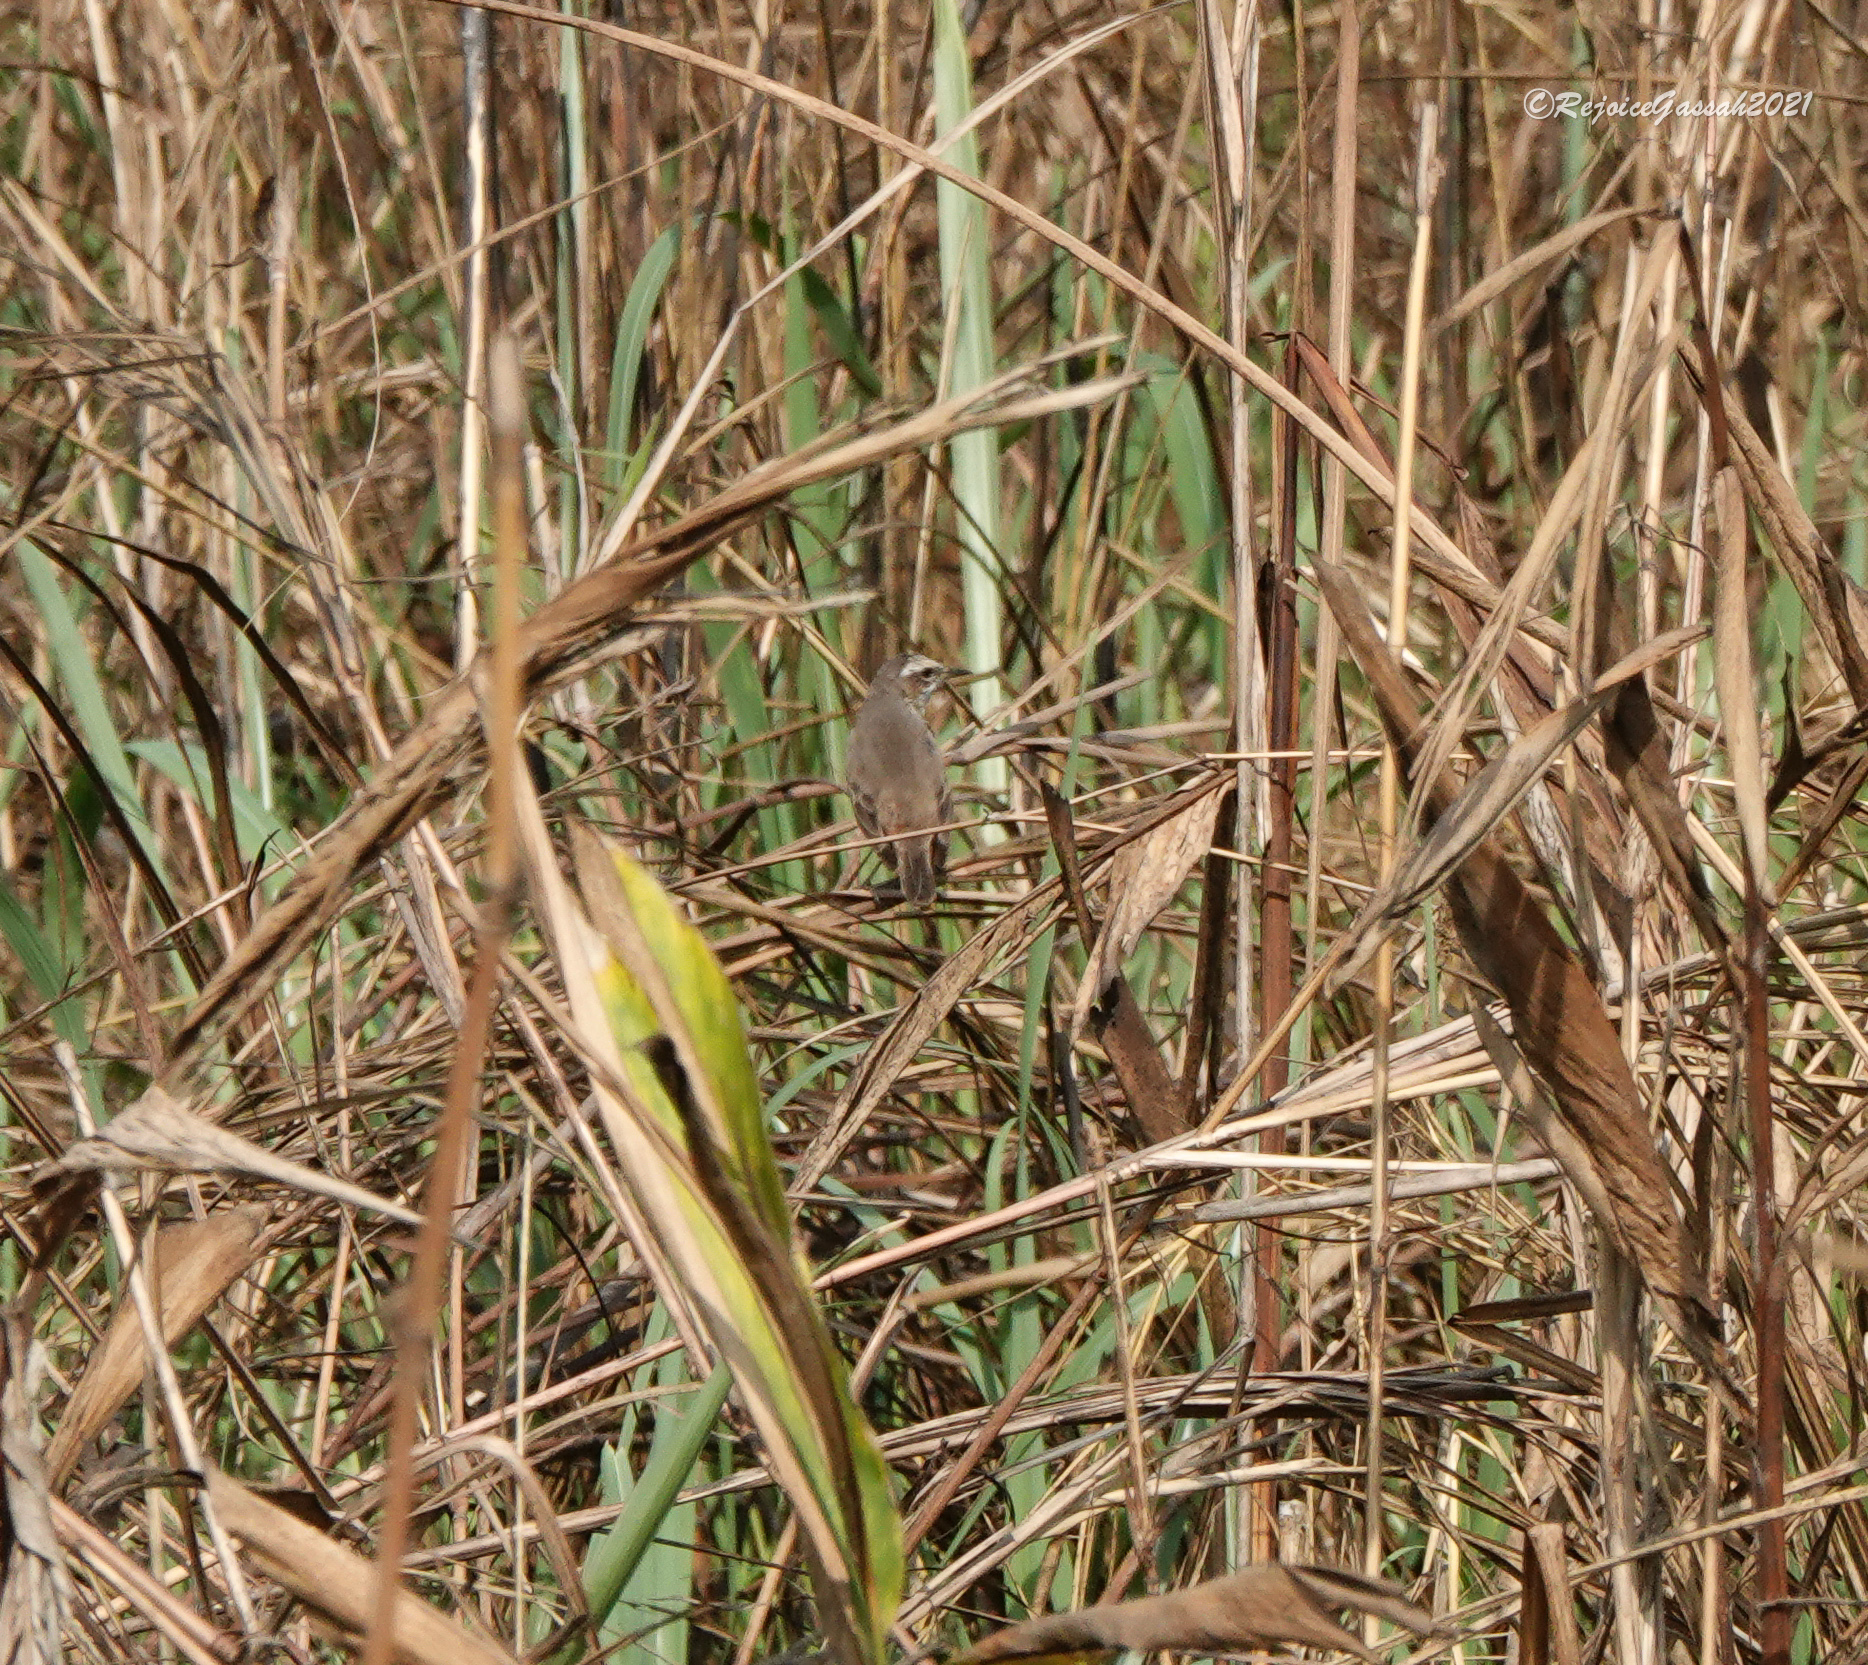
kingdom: Animalia
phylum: Chordata
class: Aves
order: Passeriformes
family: Muscicapidae
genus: Luscinia
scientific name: Luscinia svecica
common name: Bluethroat
